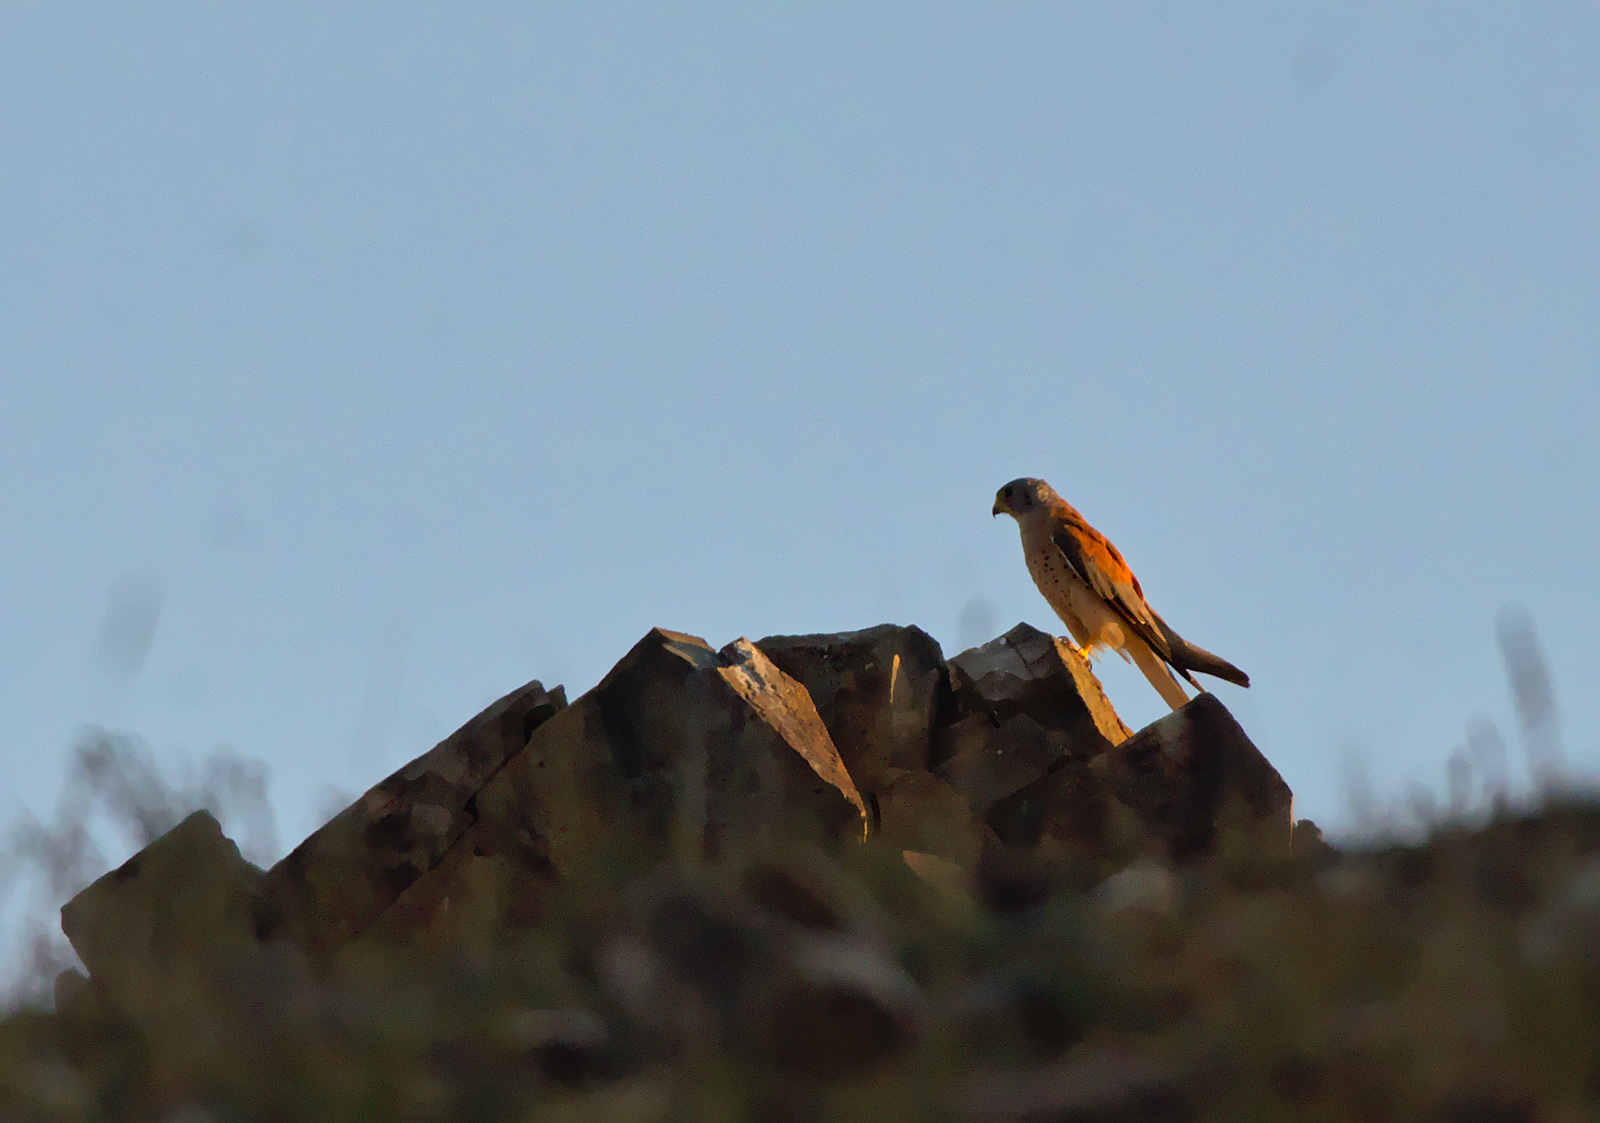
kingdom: Animalia
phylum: Chordata
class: Aves
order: Falconiformes
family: Falconidae
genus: Falco
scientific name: Falco naumanni
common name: Lesser kestrel
